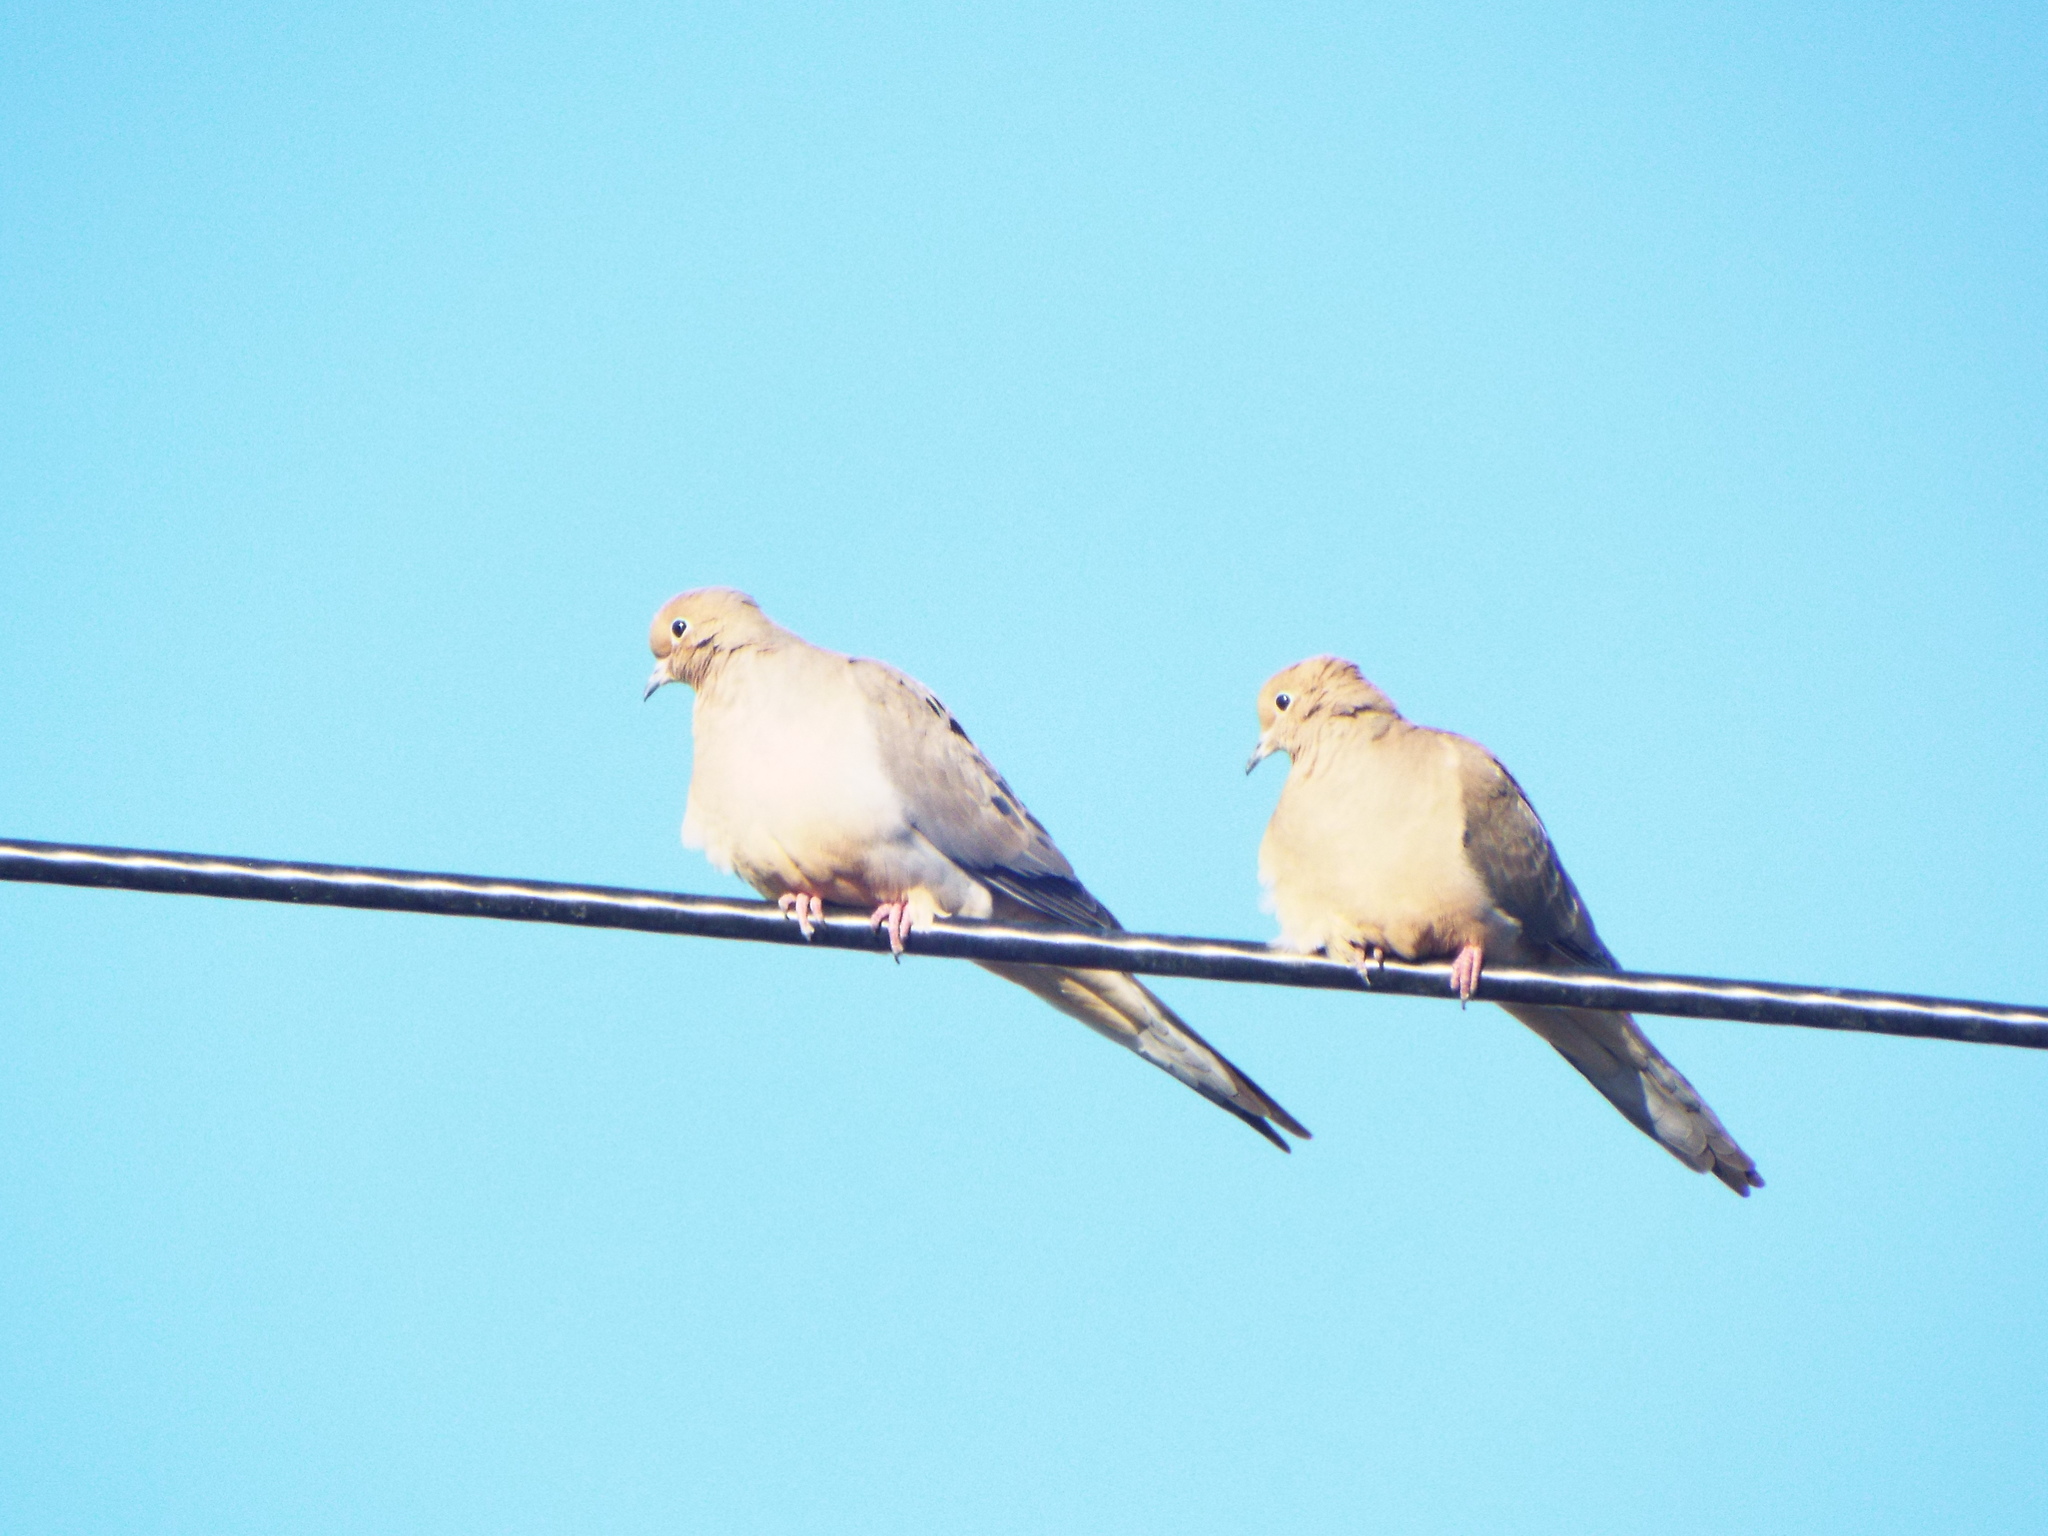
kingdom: Animalia
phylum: Chordata
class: Aves
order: Columbiformes
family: Columbidae
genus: Zenaida
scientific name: Zenaida macroura
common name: Mourning dove
